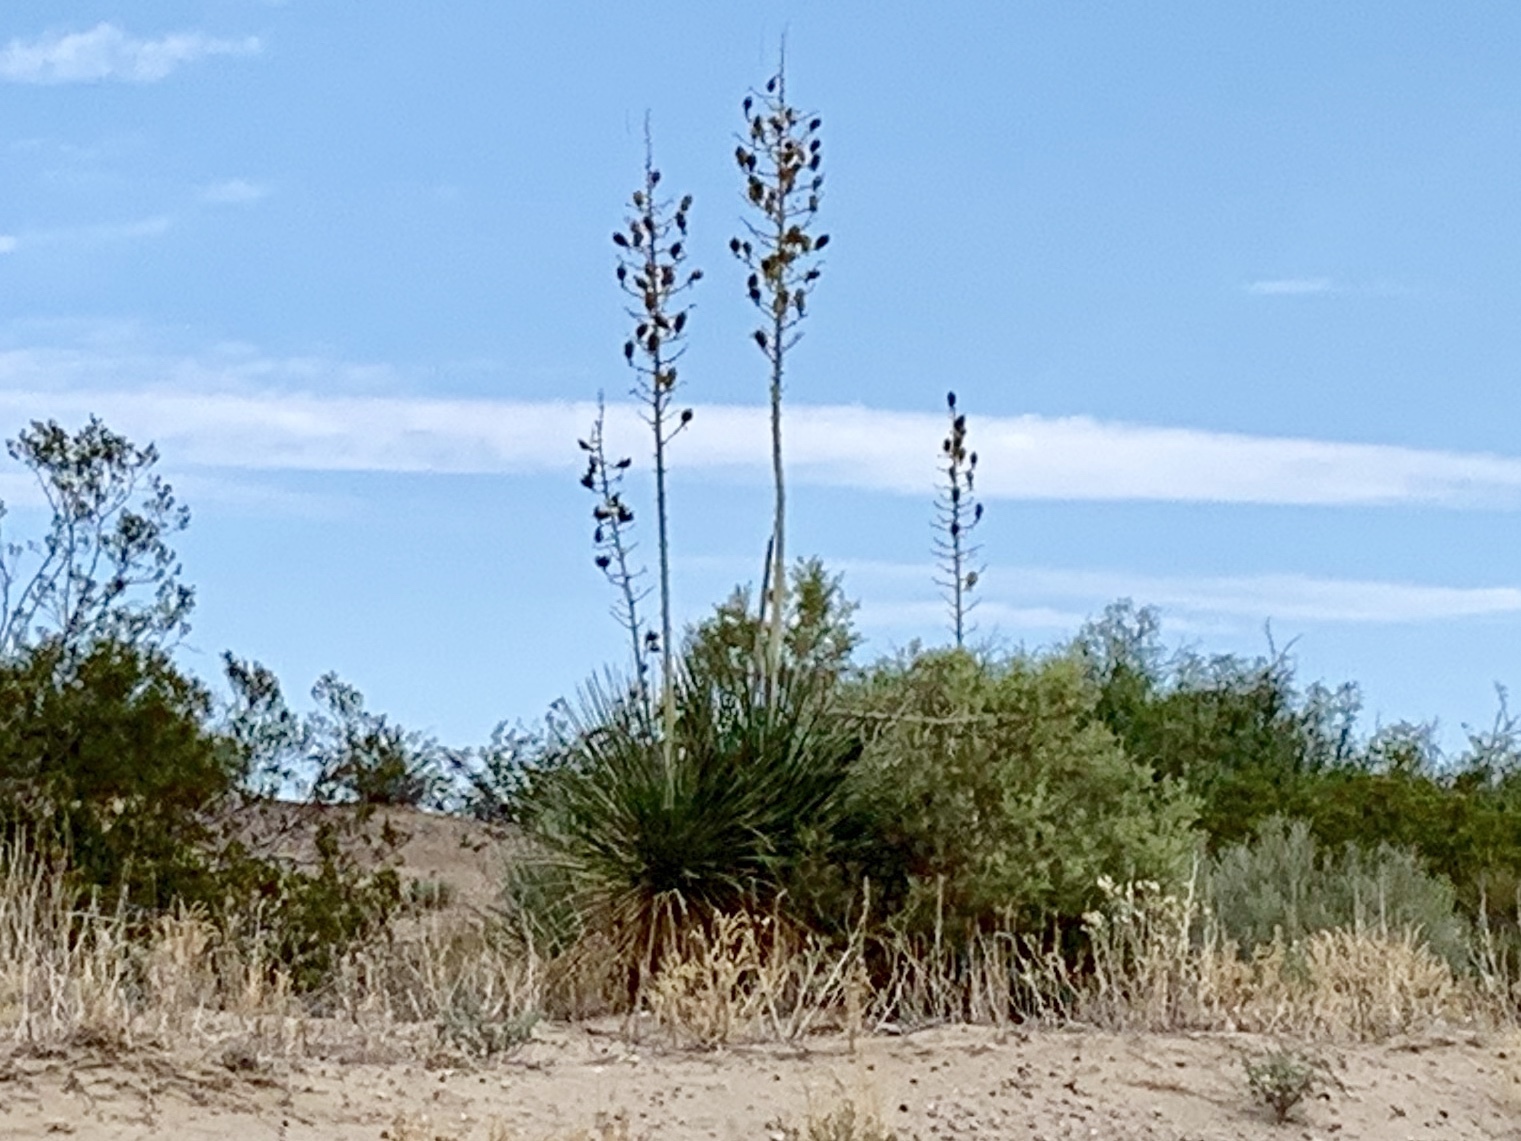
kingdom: Plantae
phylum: Tracheophyta
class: Liliopsida
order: Asparagales
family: Asparagaceae
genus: Yucca
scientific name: Yucca elata
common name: Palmella
